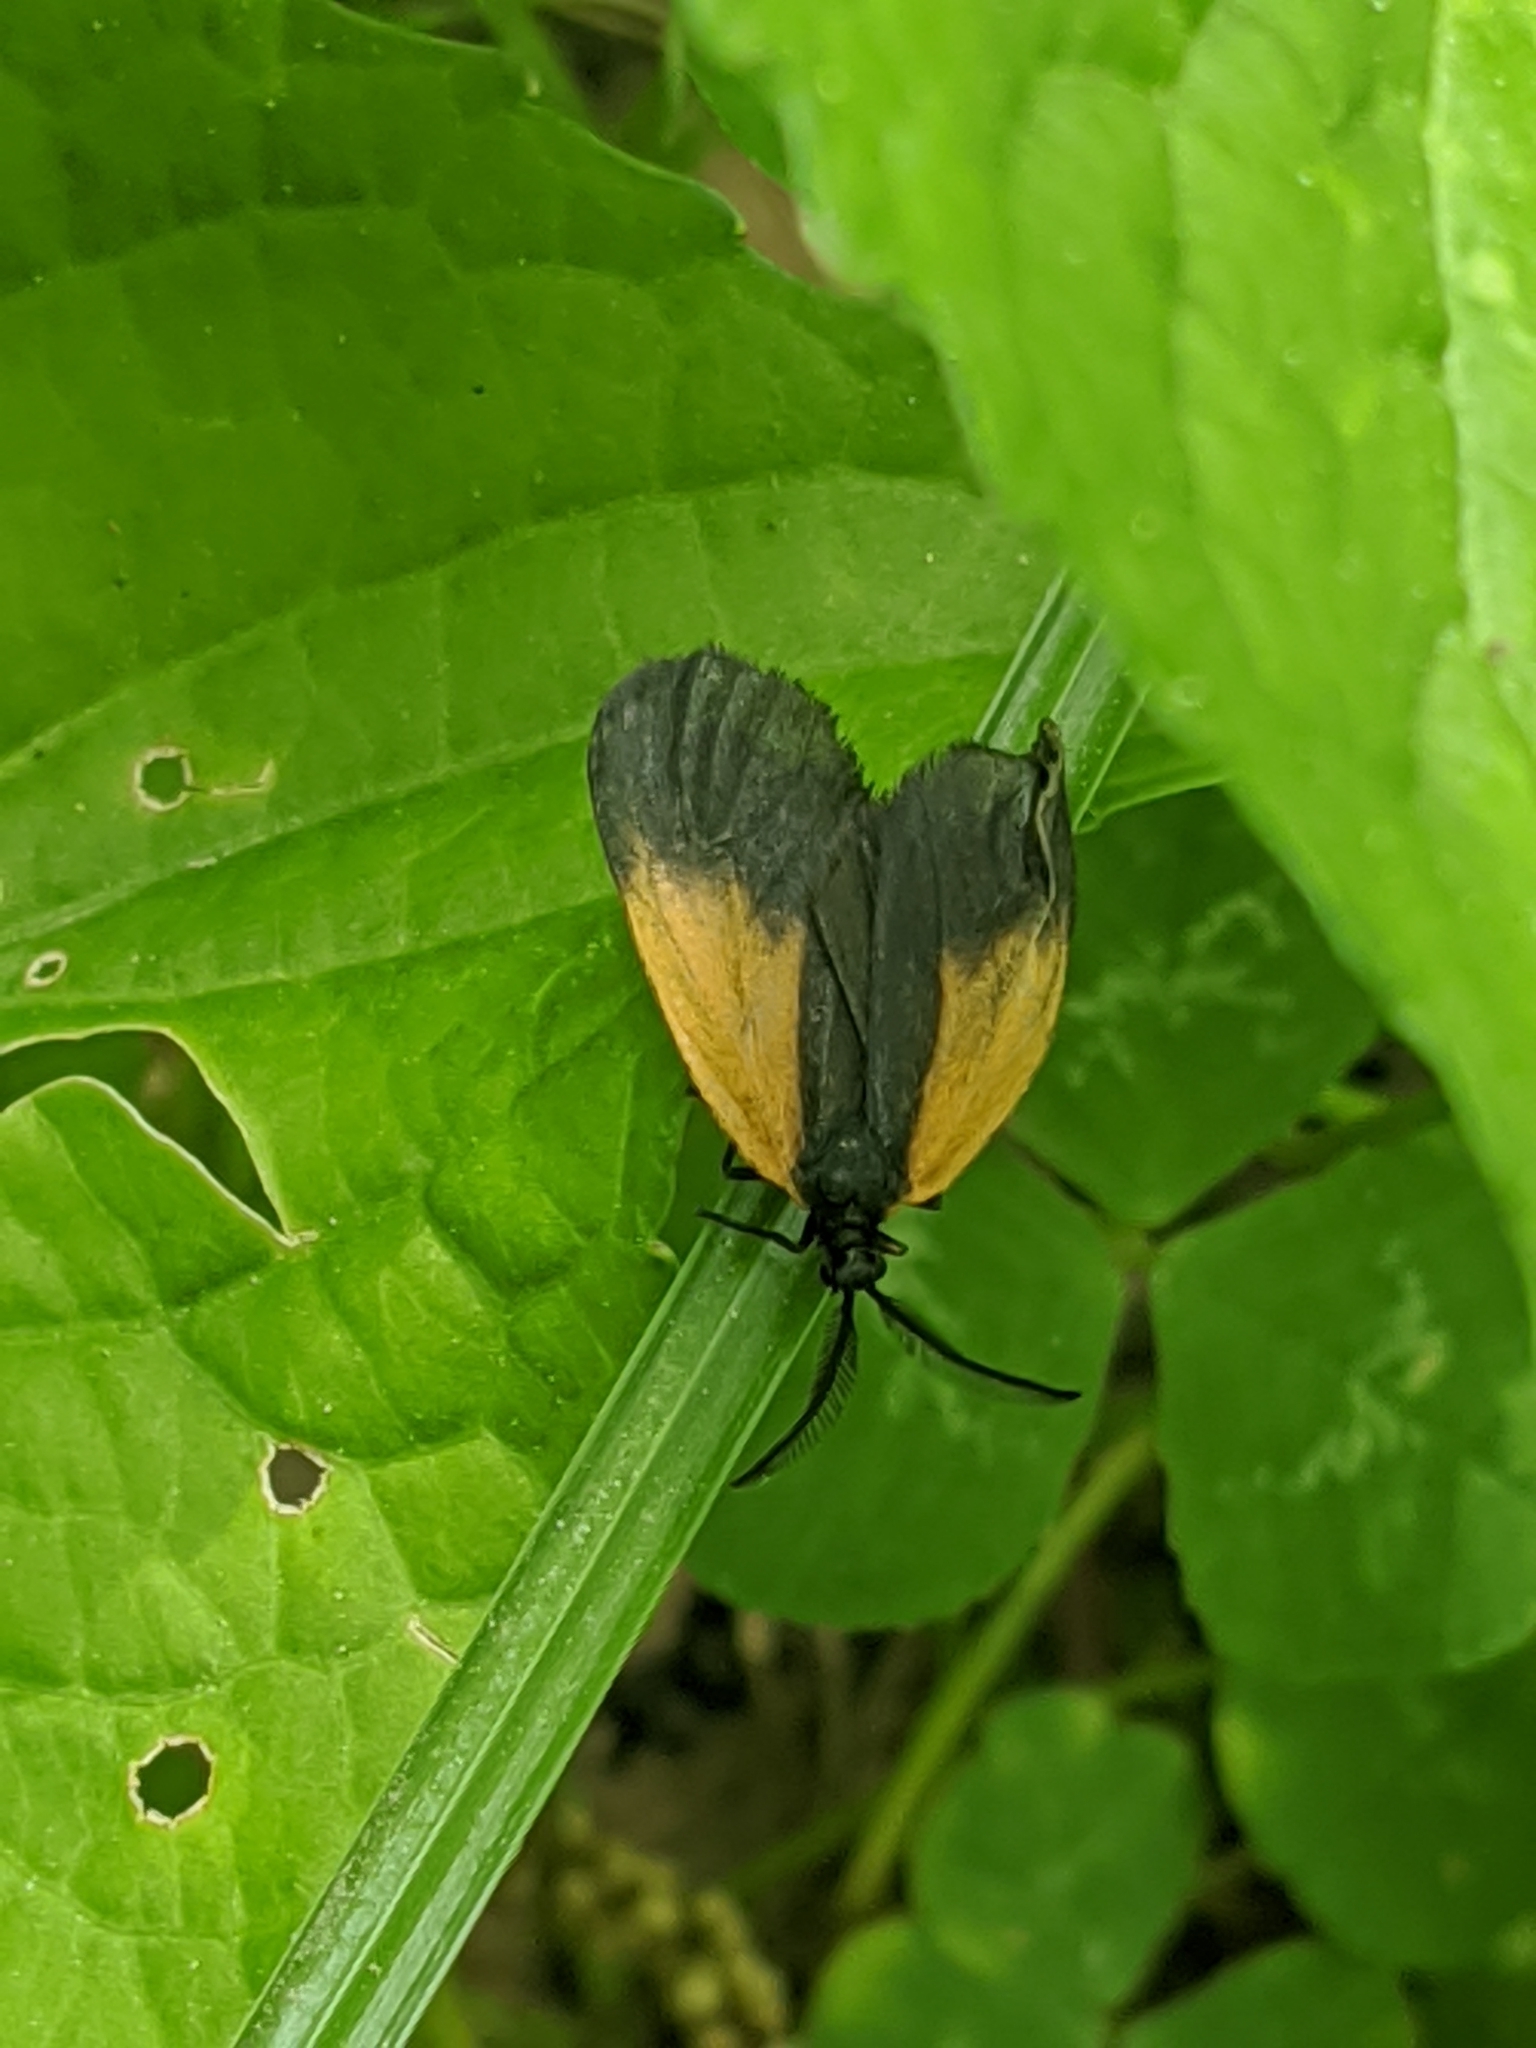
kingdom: Animalia
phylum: Arthropoda
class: Insecta
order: Lepidoptera
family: Zygaenidae
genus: Malthaca
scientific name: Malthaca dimidiata
